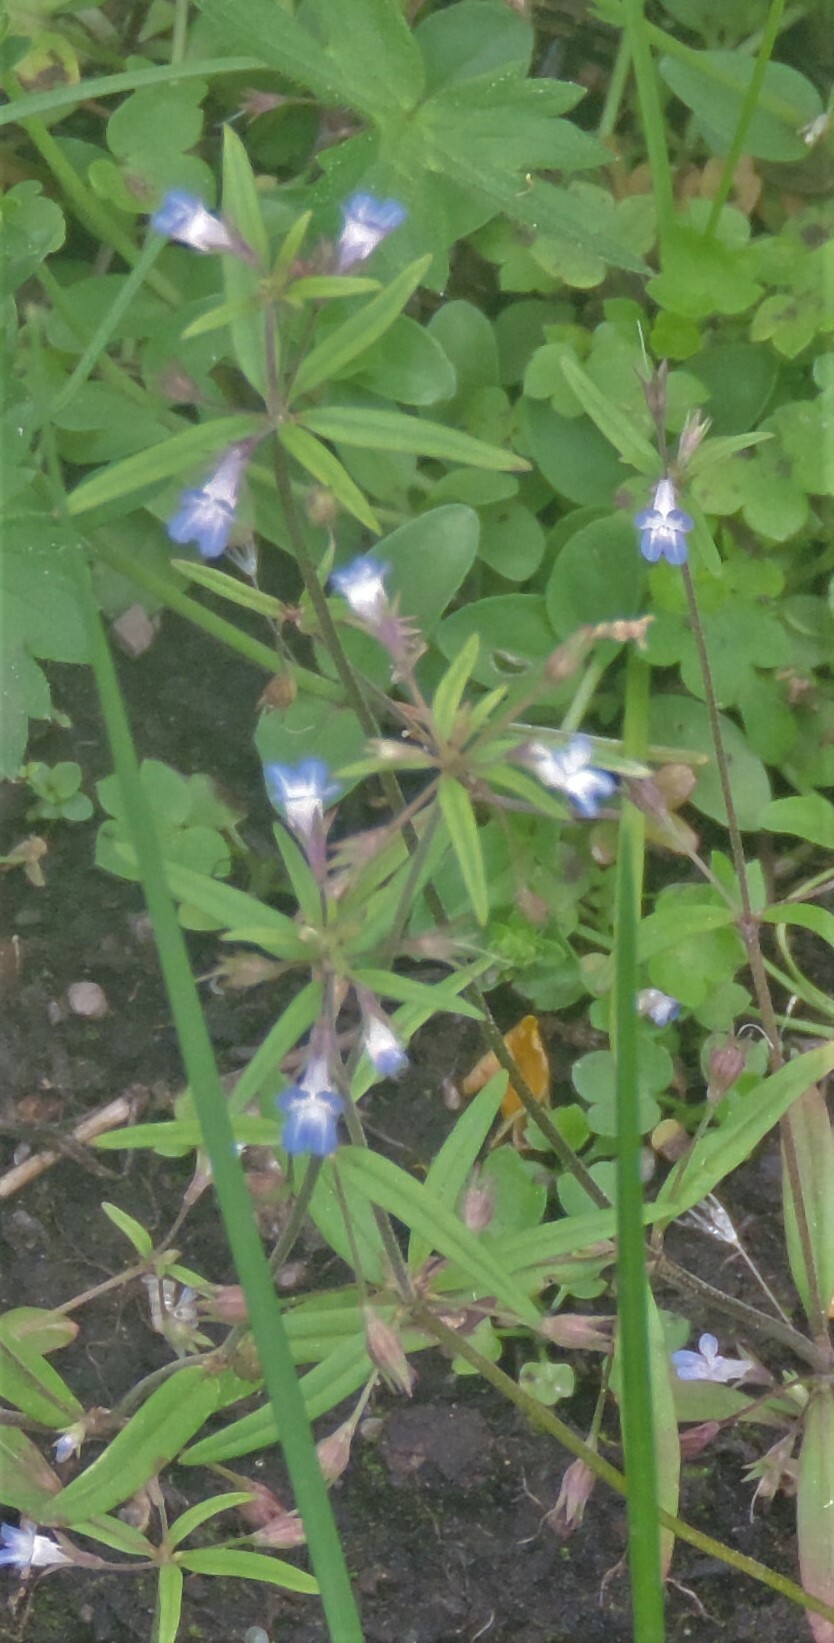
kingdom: Plantae
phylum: Tracheophyta
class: Magnoliopsida
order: Lamiales
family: Plantaginaceae
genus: Collinsia
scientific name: Collinsia parviflora
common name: Blue-lips
